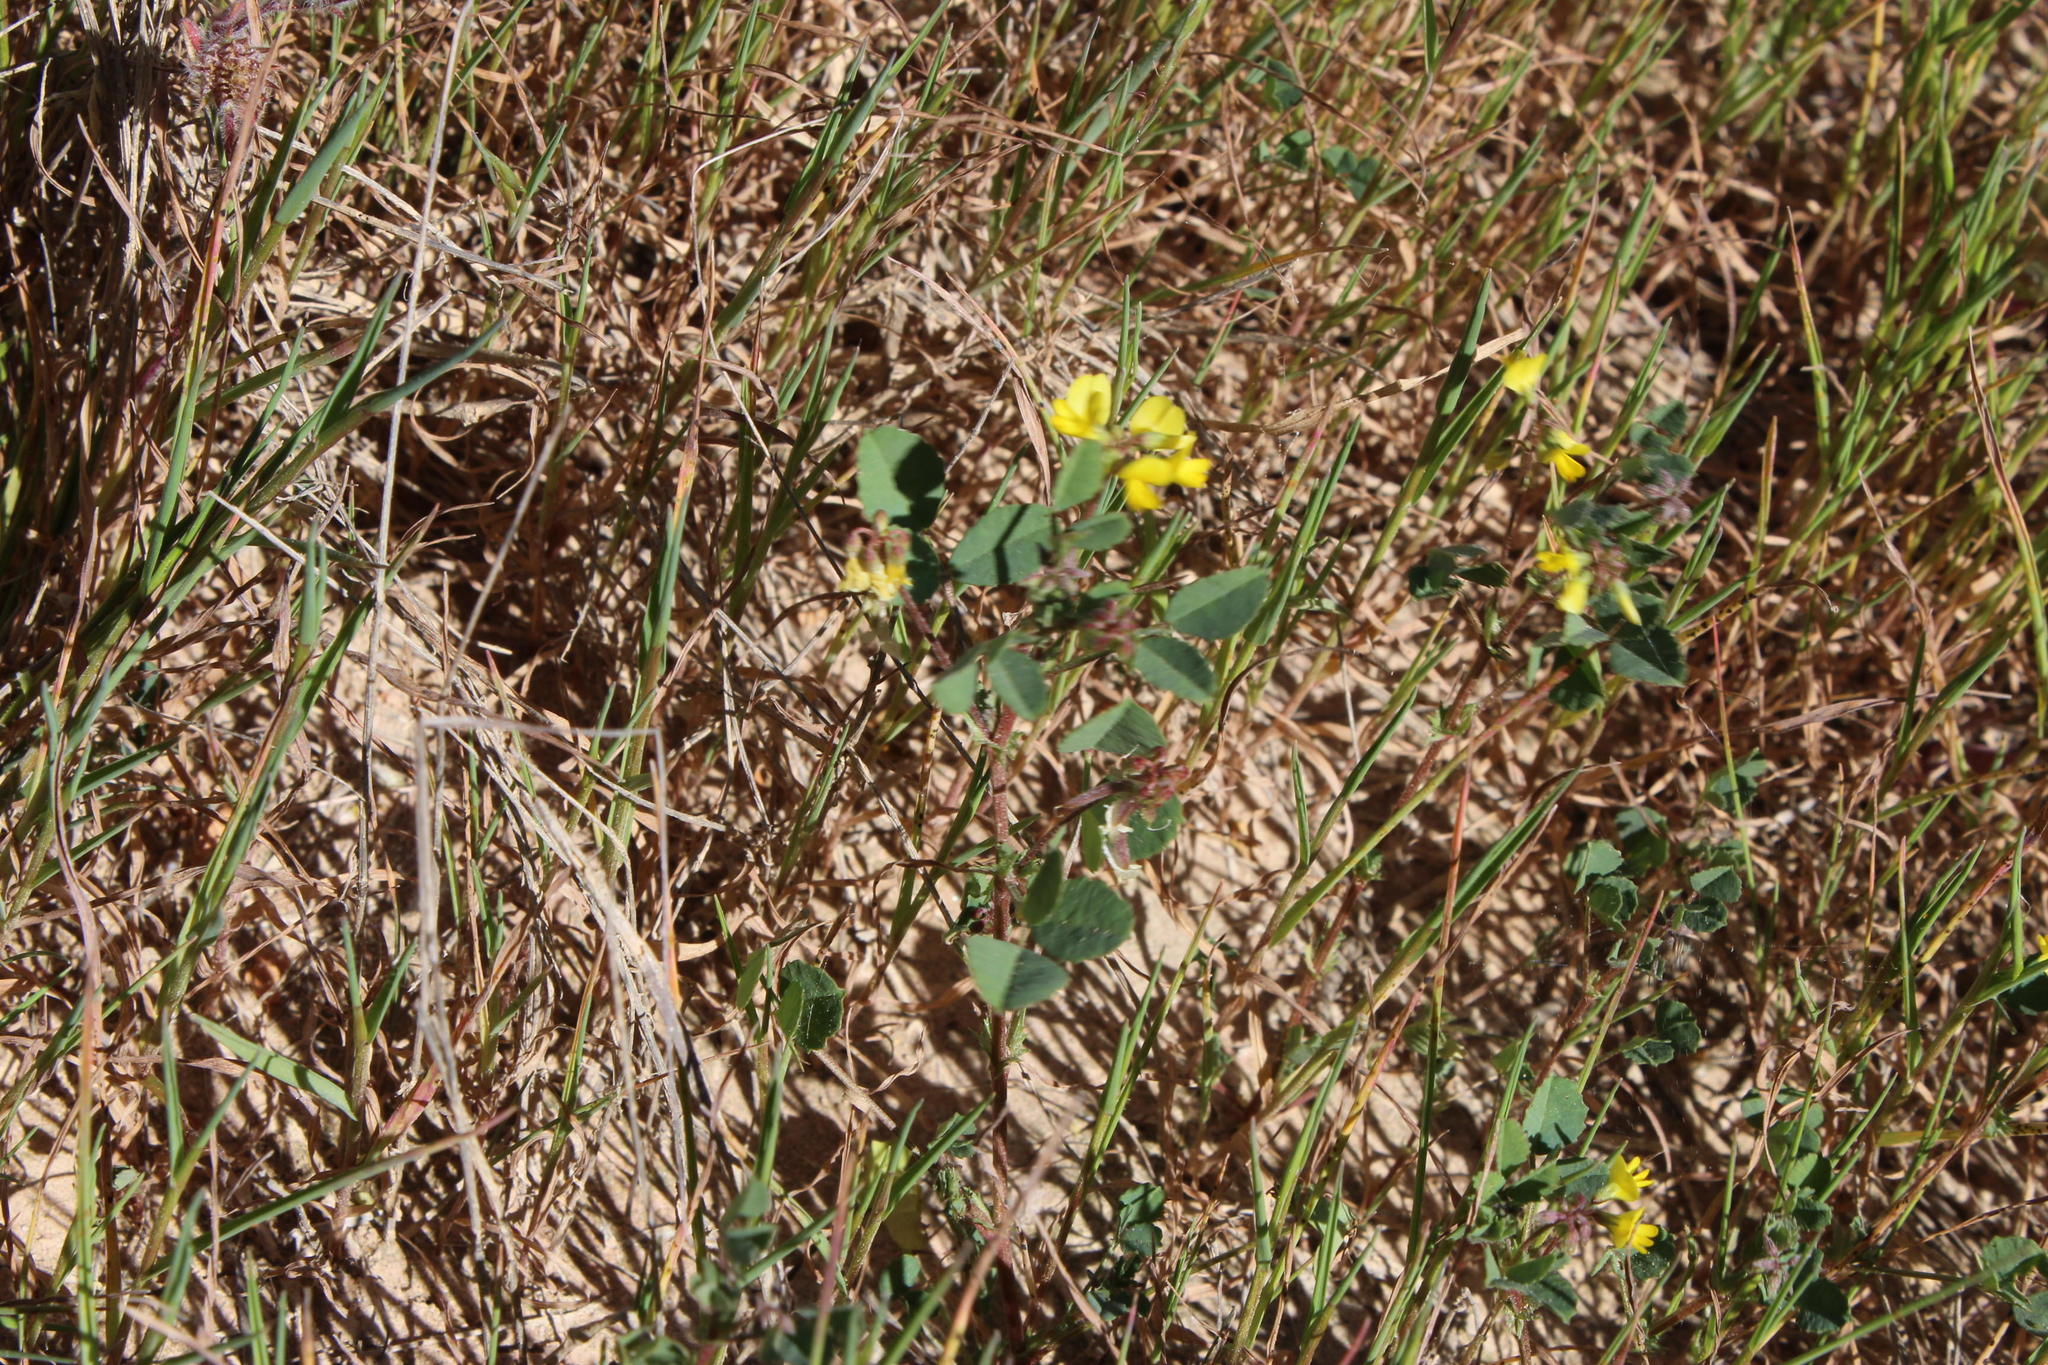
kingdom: Plantae
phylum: Tracheophyta
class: Magnoliopsida
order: Fabales
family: Fabaceae
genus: Medicago
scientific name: Medicago polymorpha
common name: Burclover
